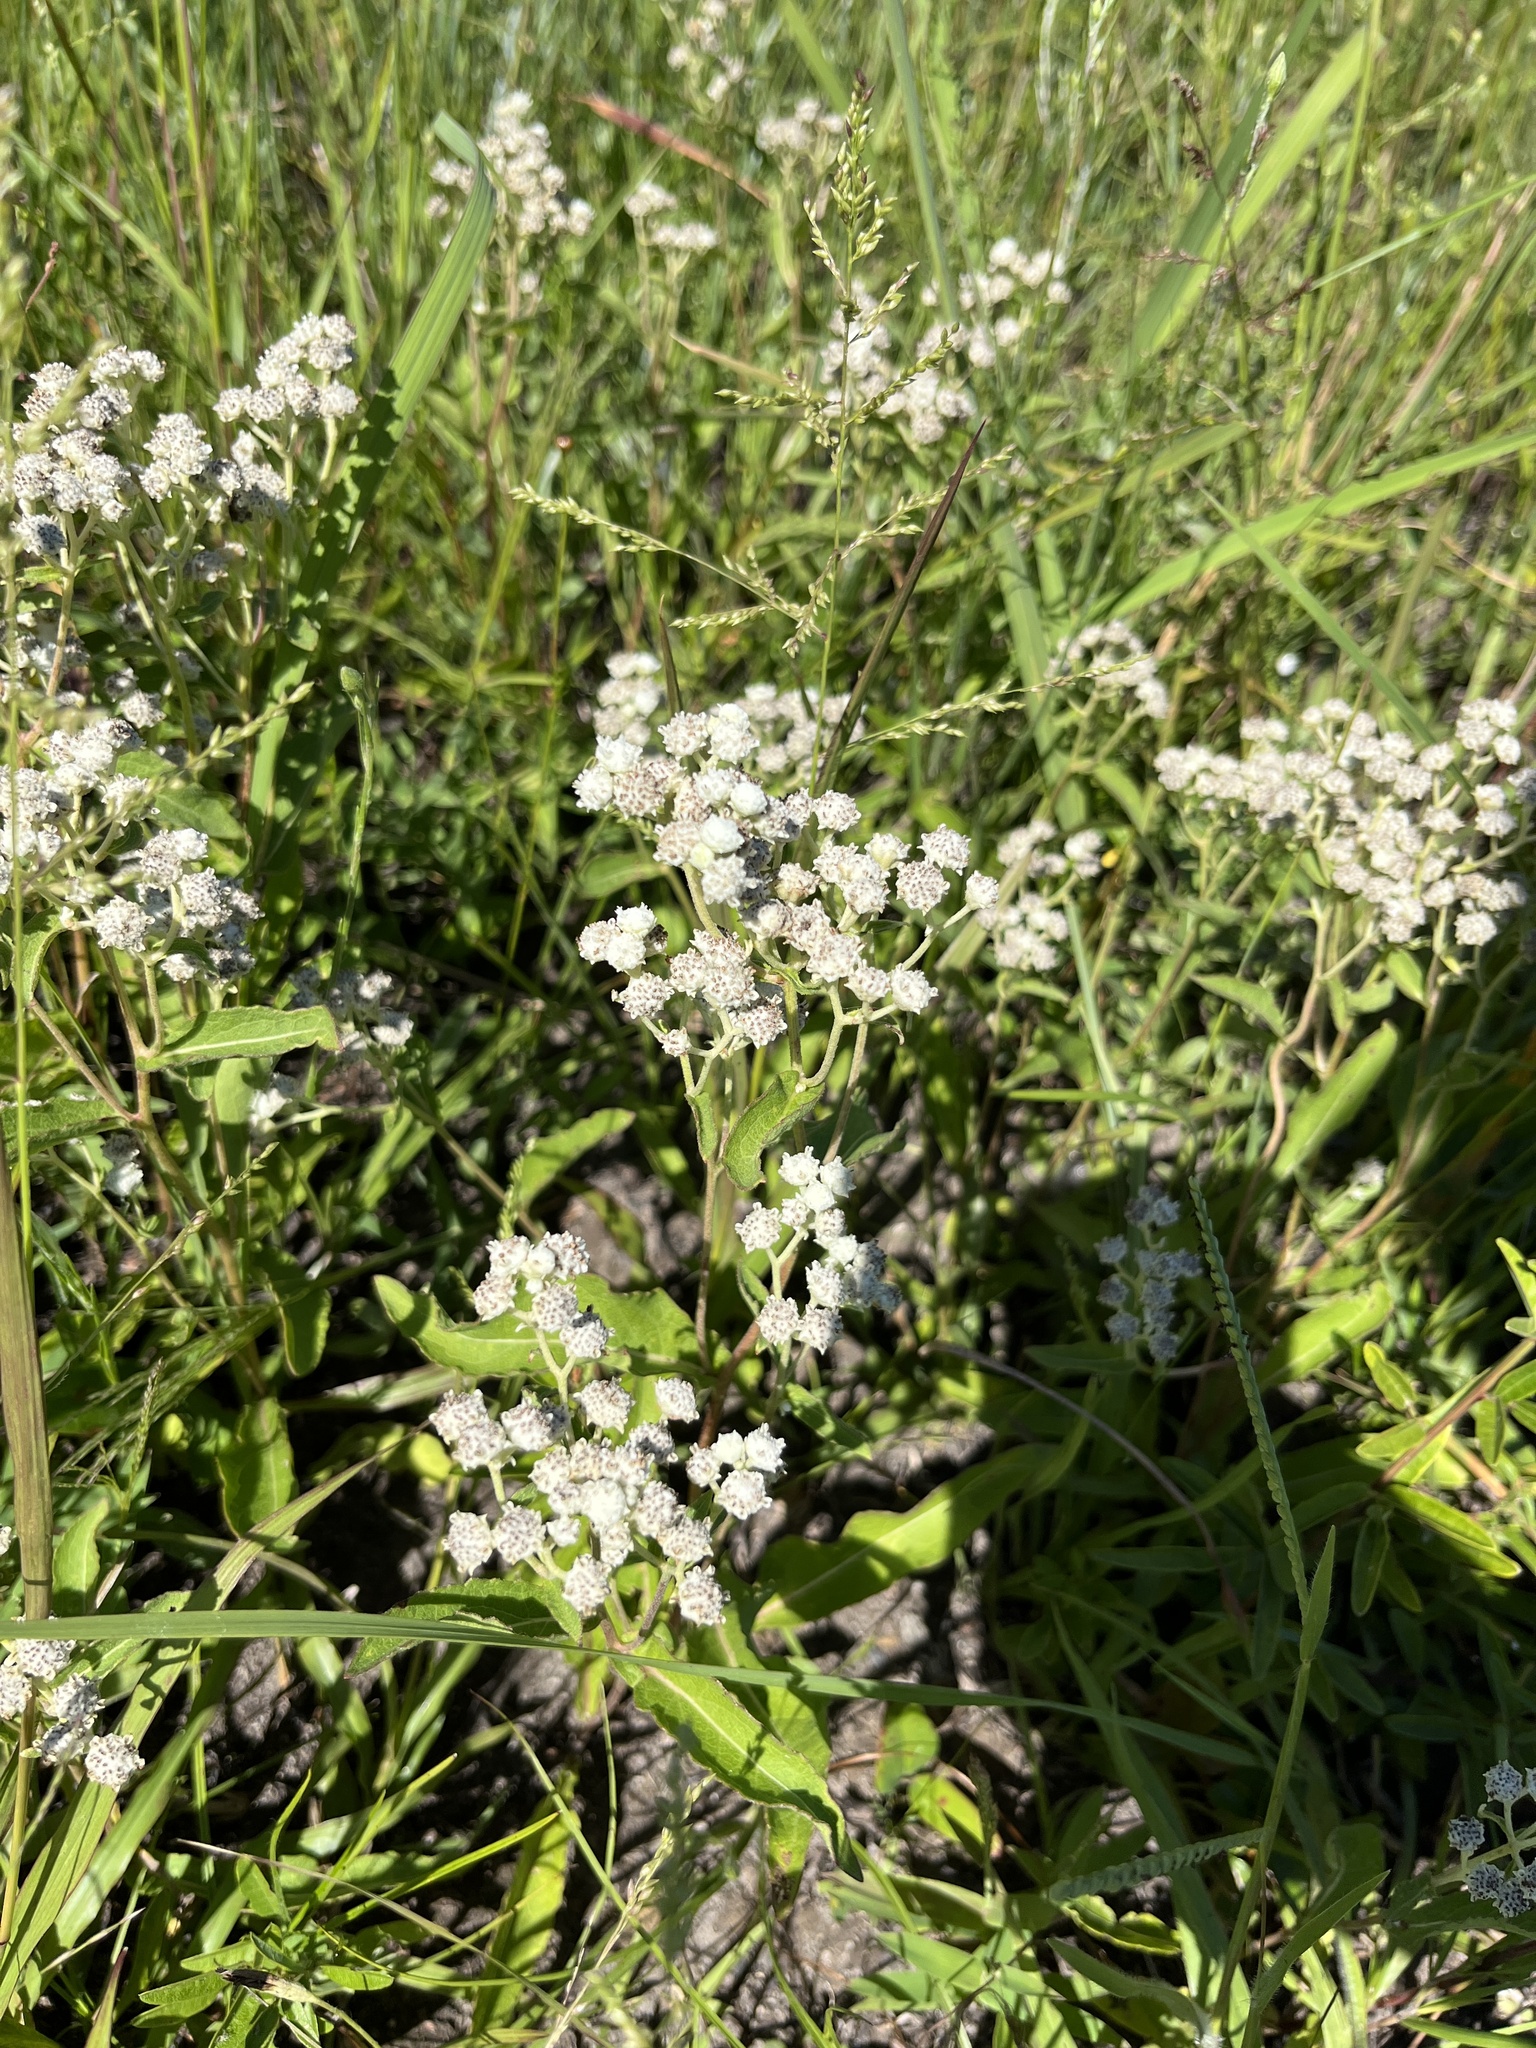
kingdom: Plantae
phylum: Tracheophyta
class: Magnoliopsida
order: Asterales
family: Asteraceae
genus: Parthenium
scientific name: Parthenium integrifolium
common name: American feverfew
